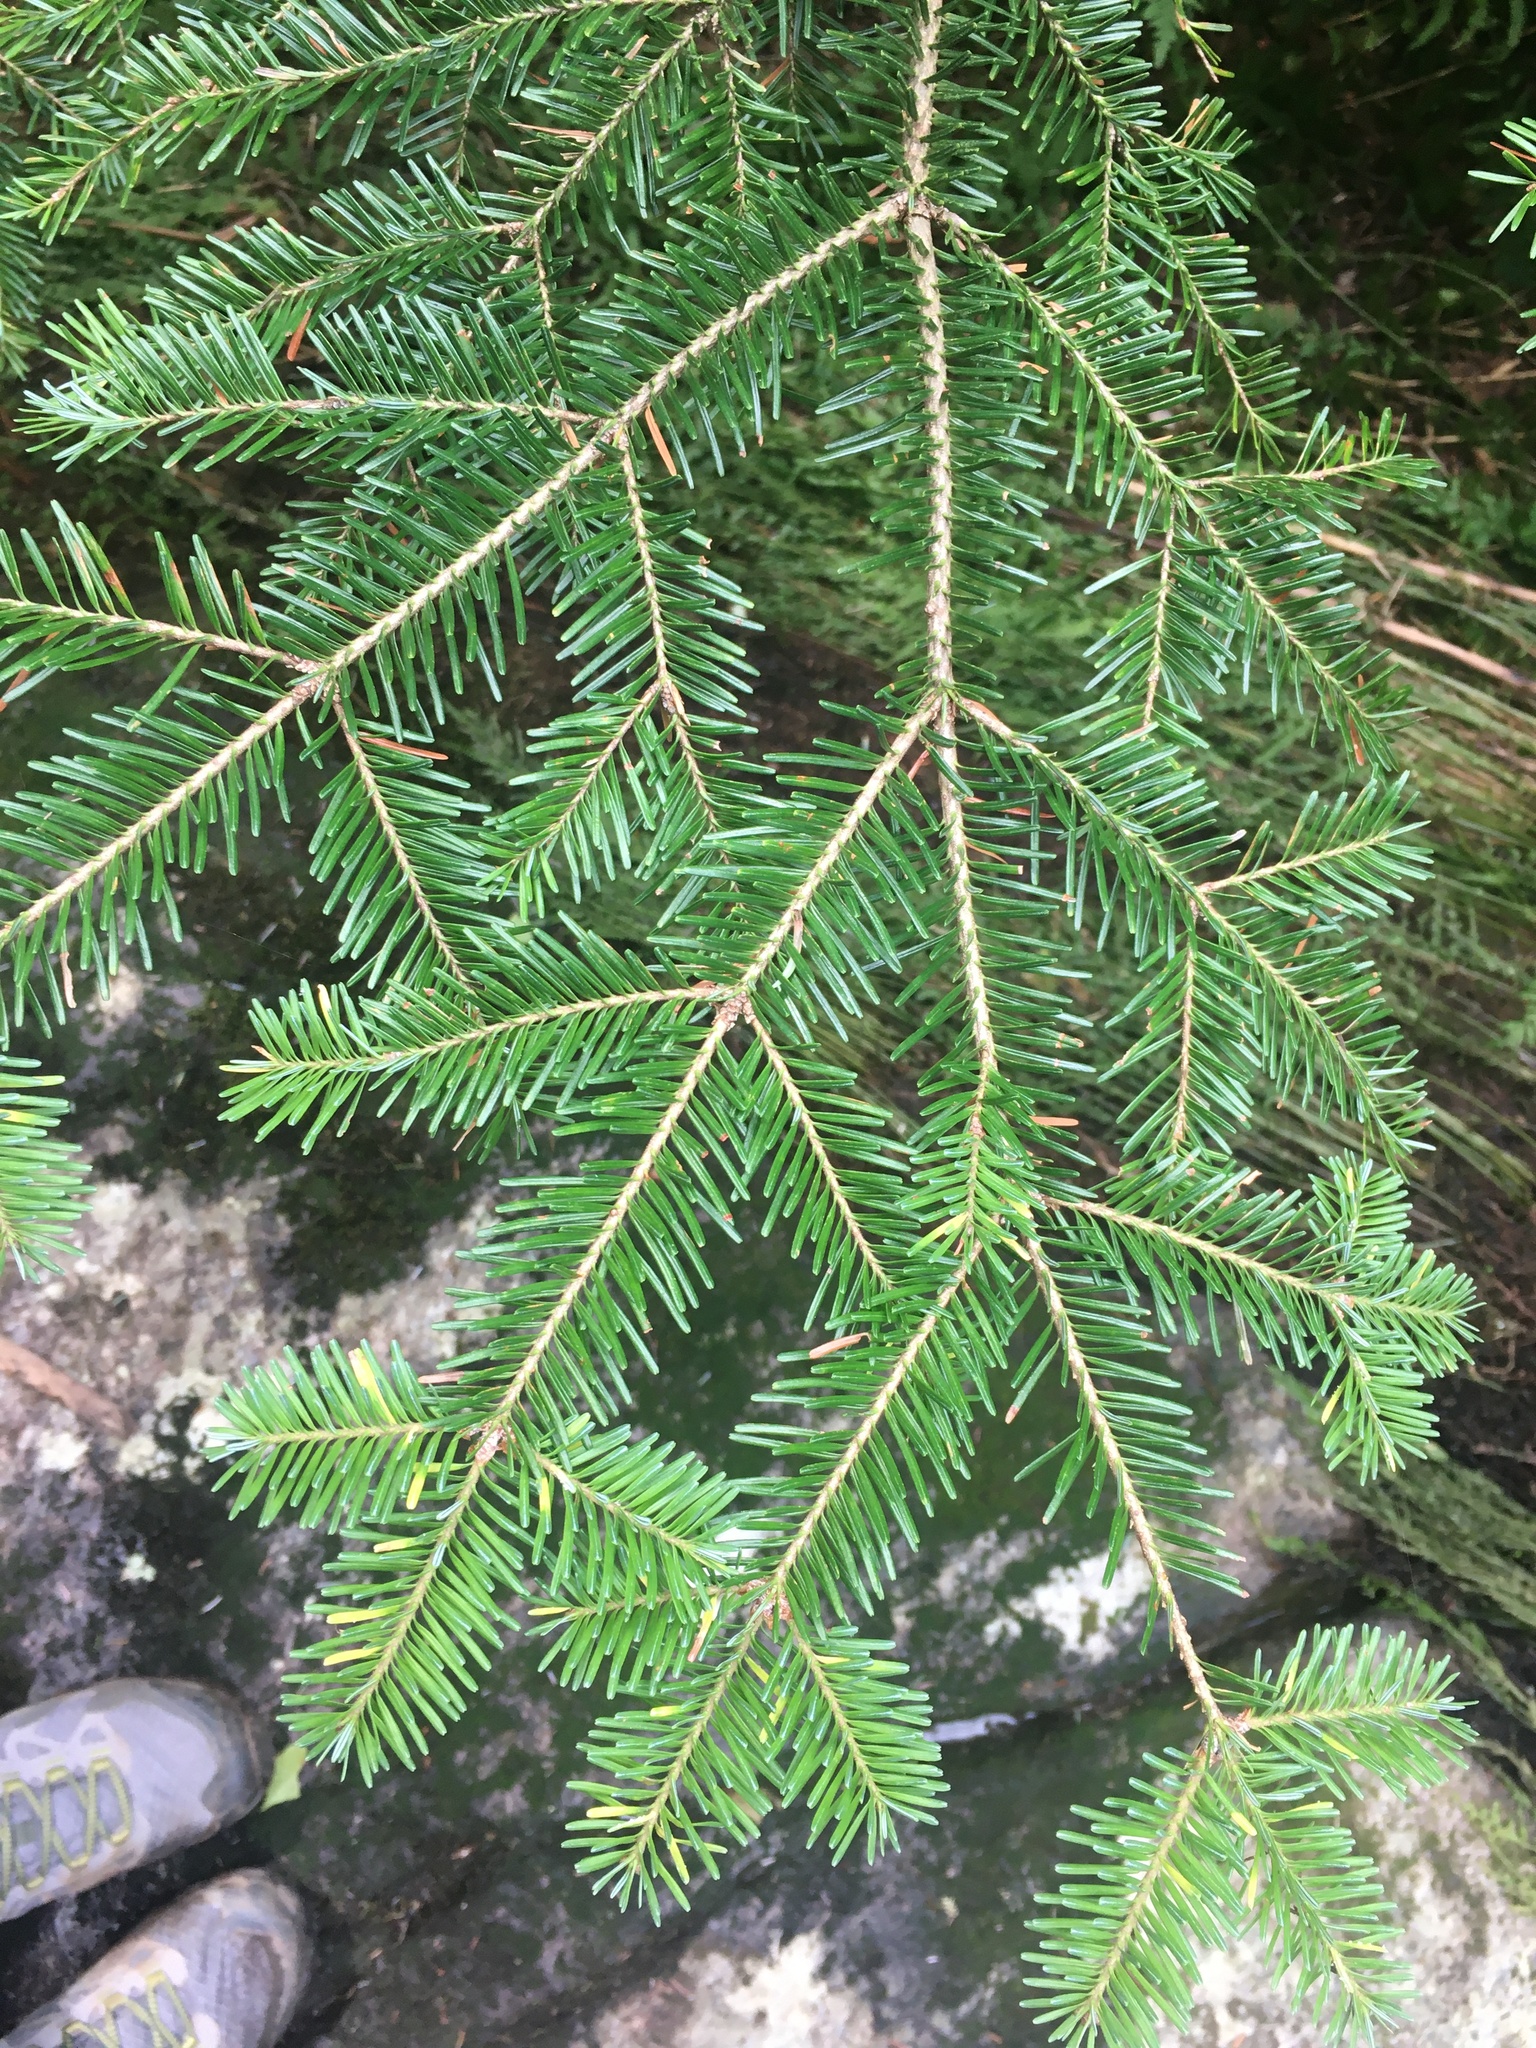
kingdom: Plantae
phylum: Tracheophyta
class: Pinopsida
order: Pinales
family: Pinaceae
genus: Abies
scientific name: Abies balsamea
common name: Balsam fir
